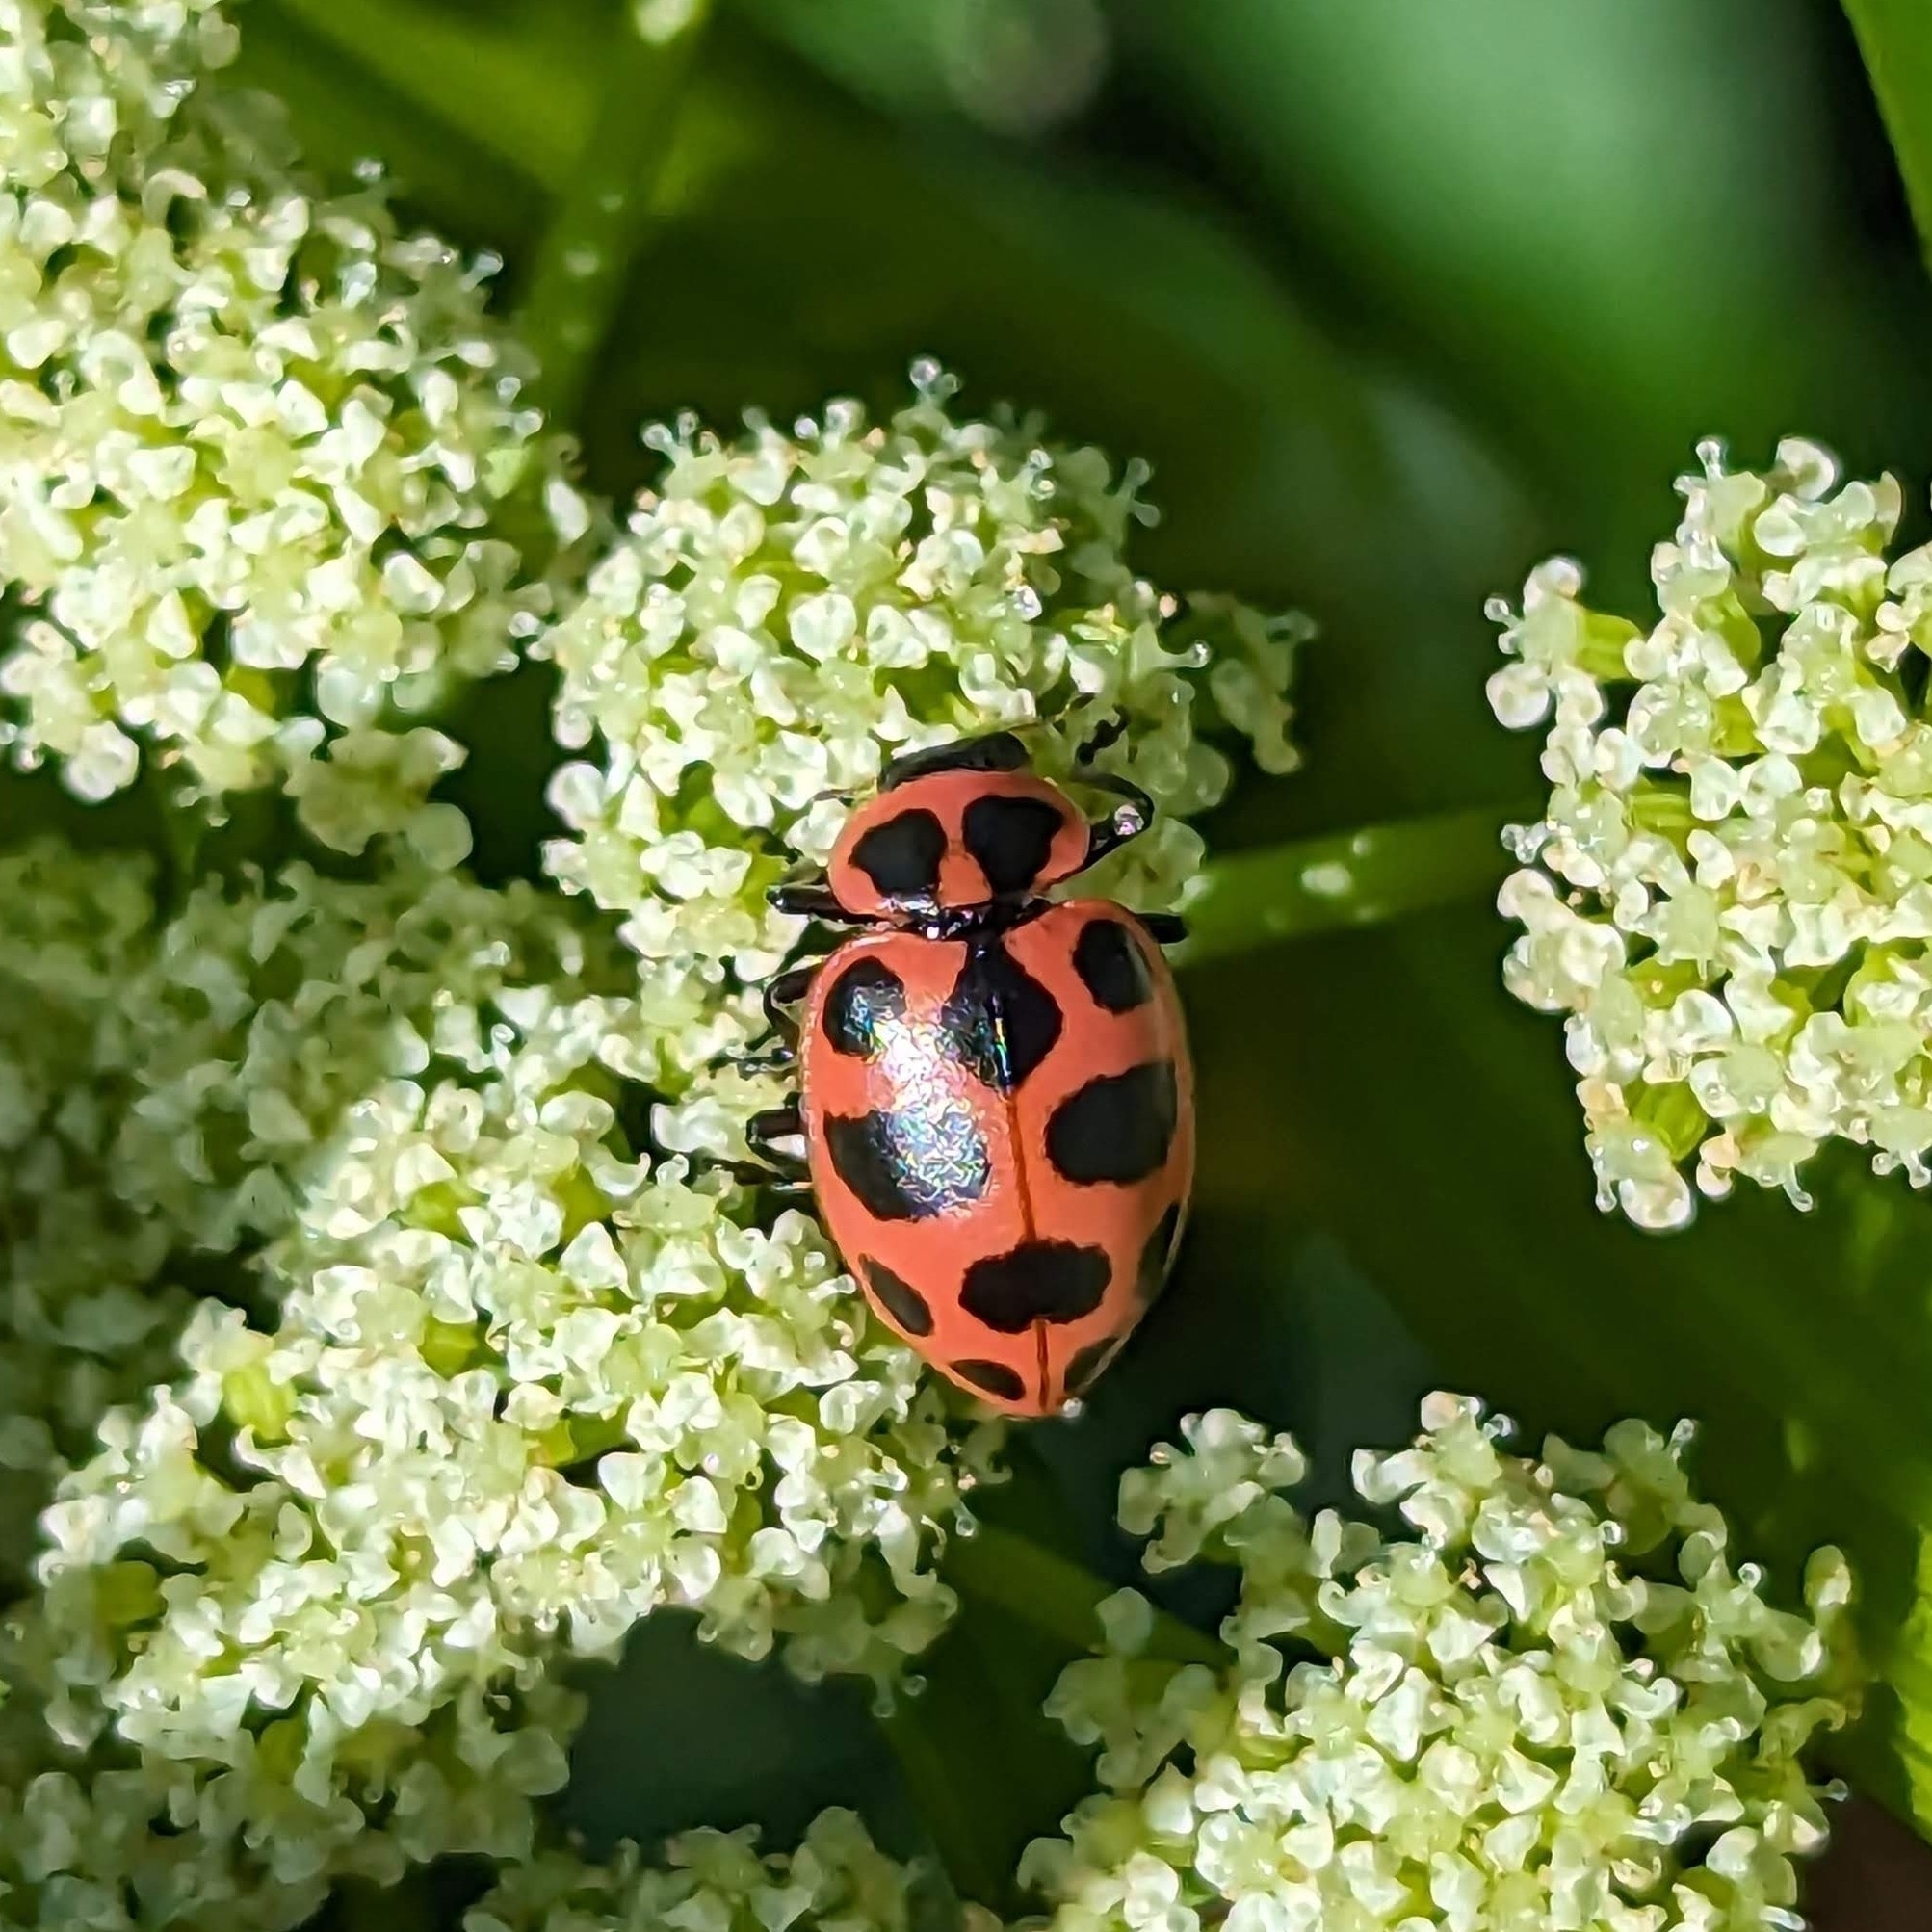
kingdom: Animalia
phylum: Arthropoda
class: Insecta
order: Coleoptera
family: Coccinellidae
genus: Coleomegilla
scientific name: Coleomegilla maculata
